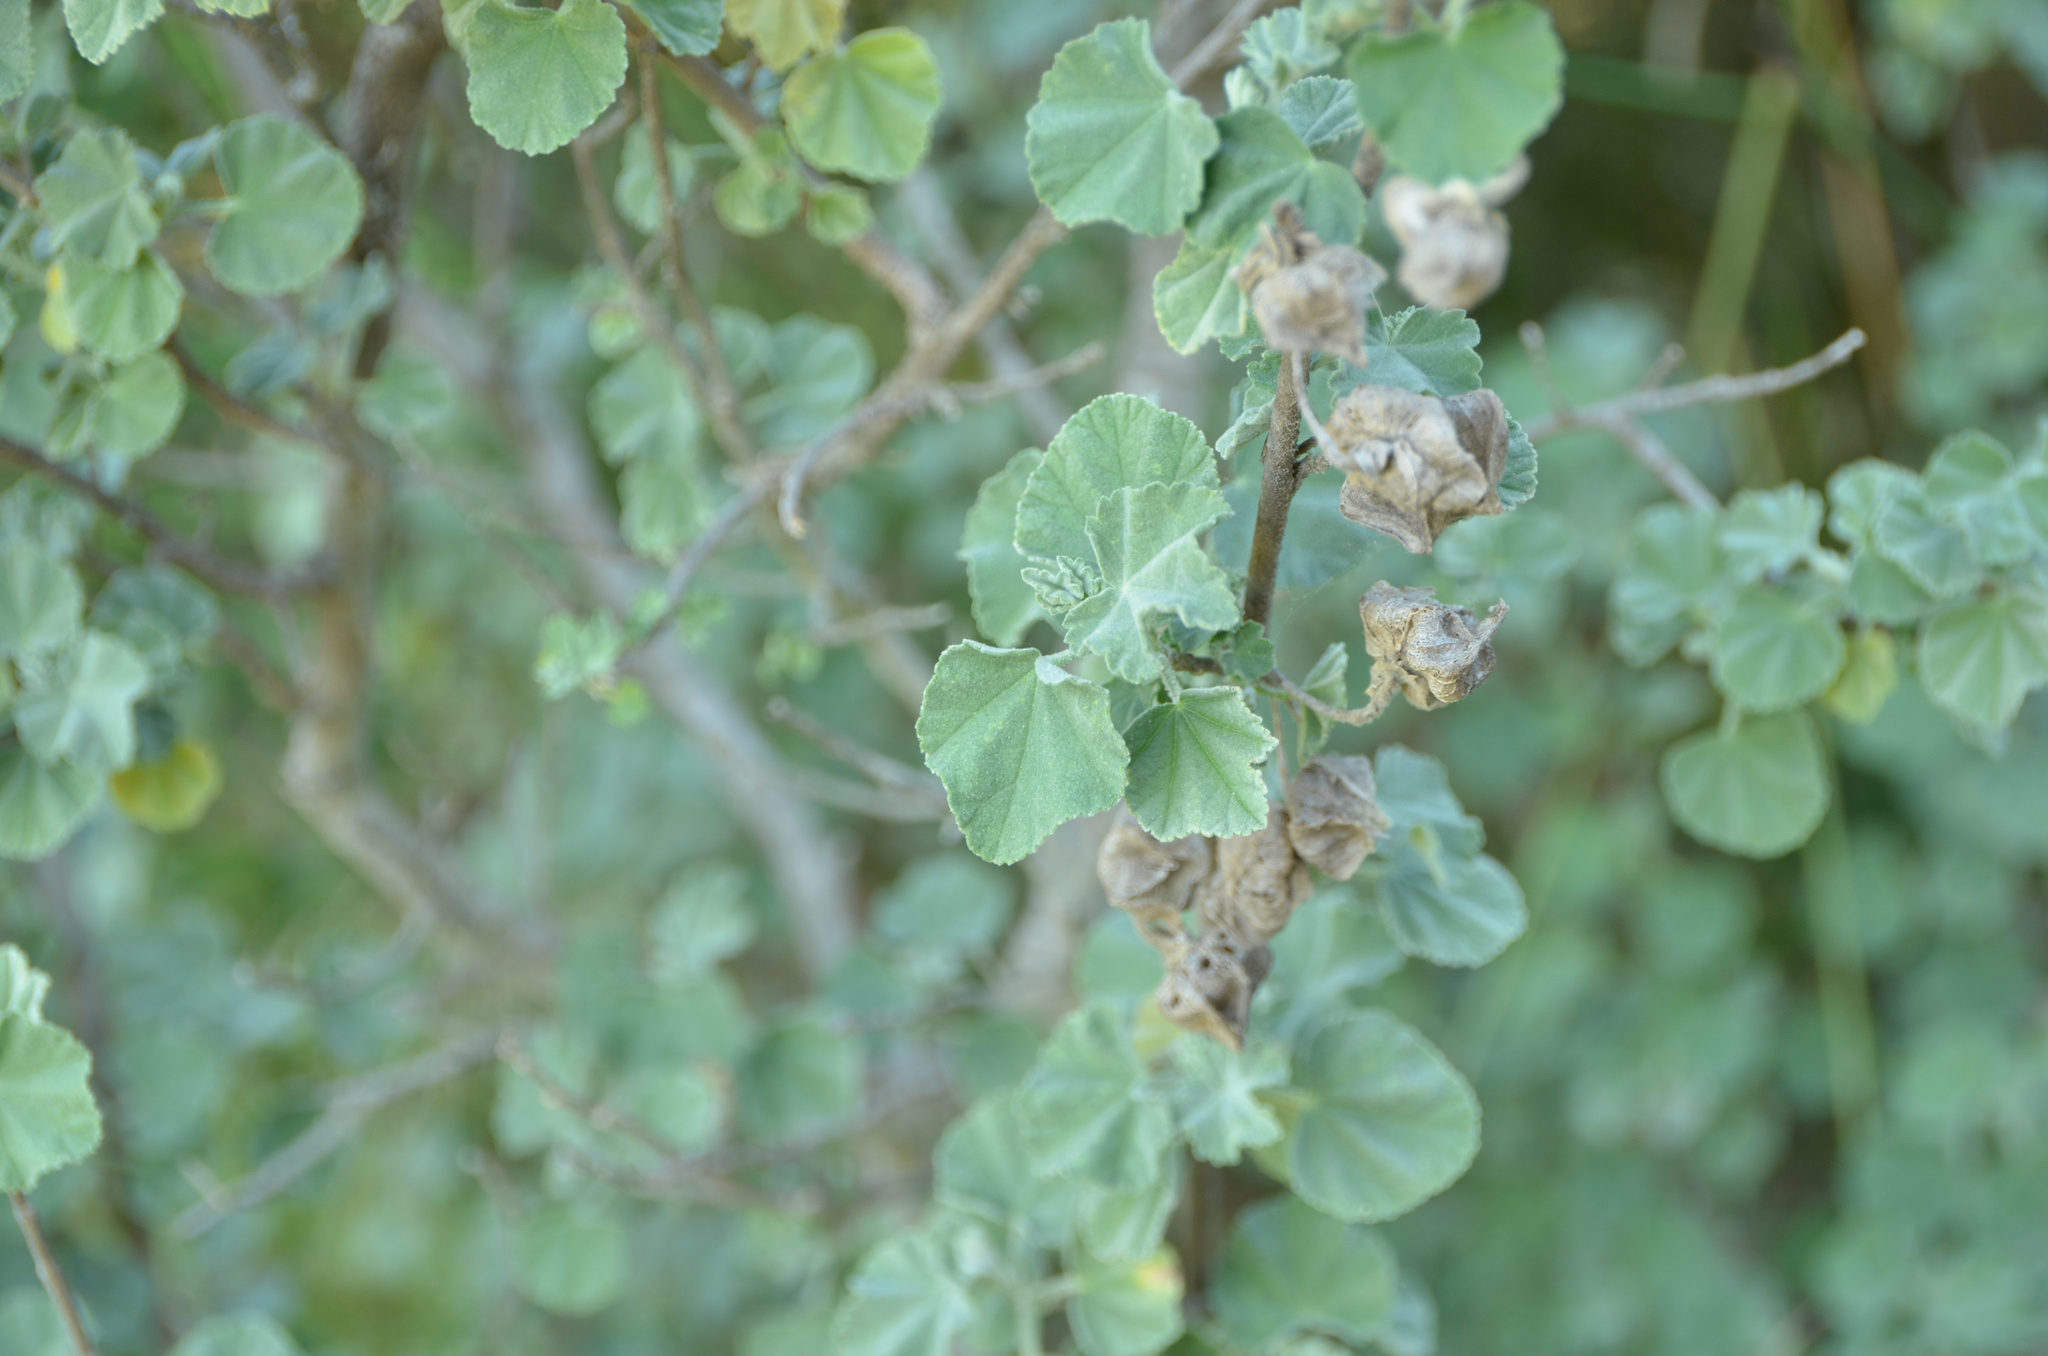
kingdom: Plantae
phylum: Tracheophyta
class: Magnoliopsida
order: Malvales
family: Malvaceae
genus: Malva
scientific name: Malva arborea
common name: Tree mallow
